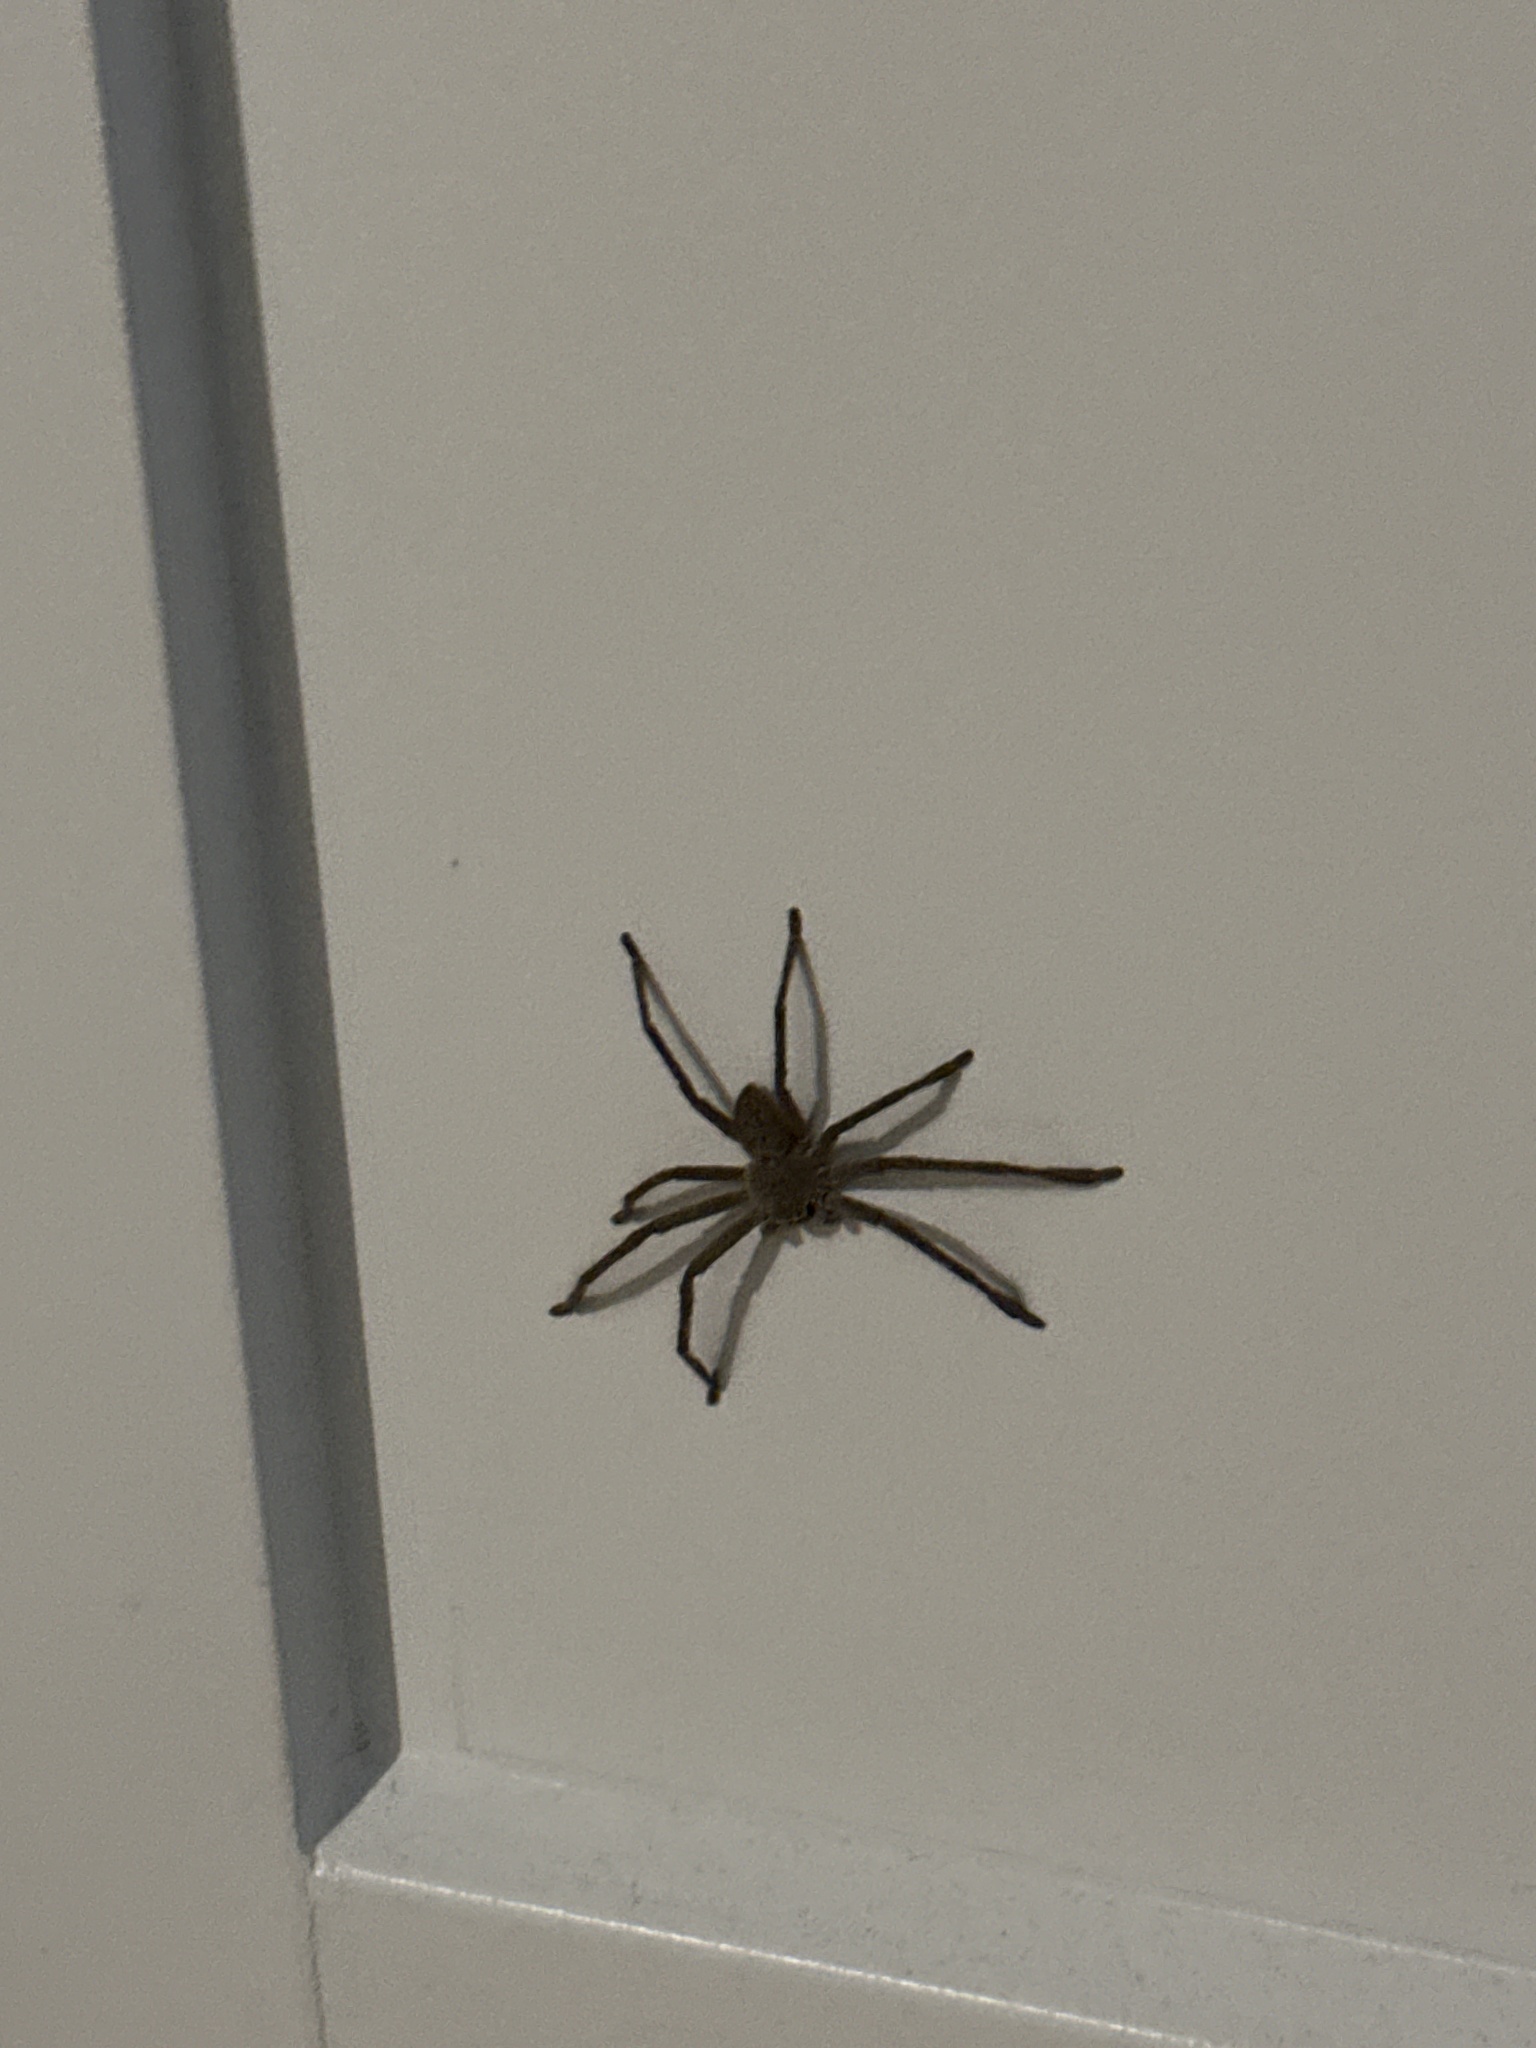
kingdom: Animalia
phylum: Arthropoda
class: Arachnida
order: Araneae
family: Sparassidae
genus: Isopedella
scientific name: Isopedella leai
